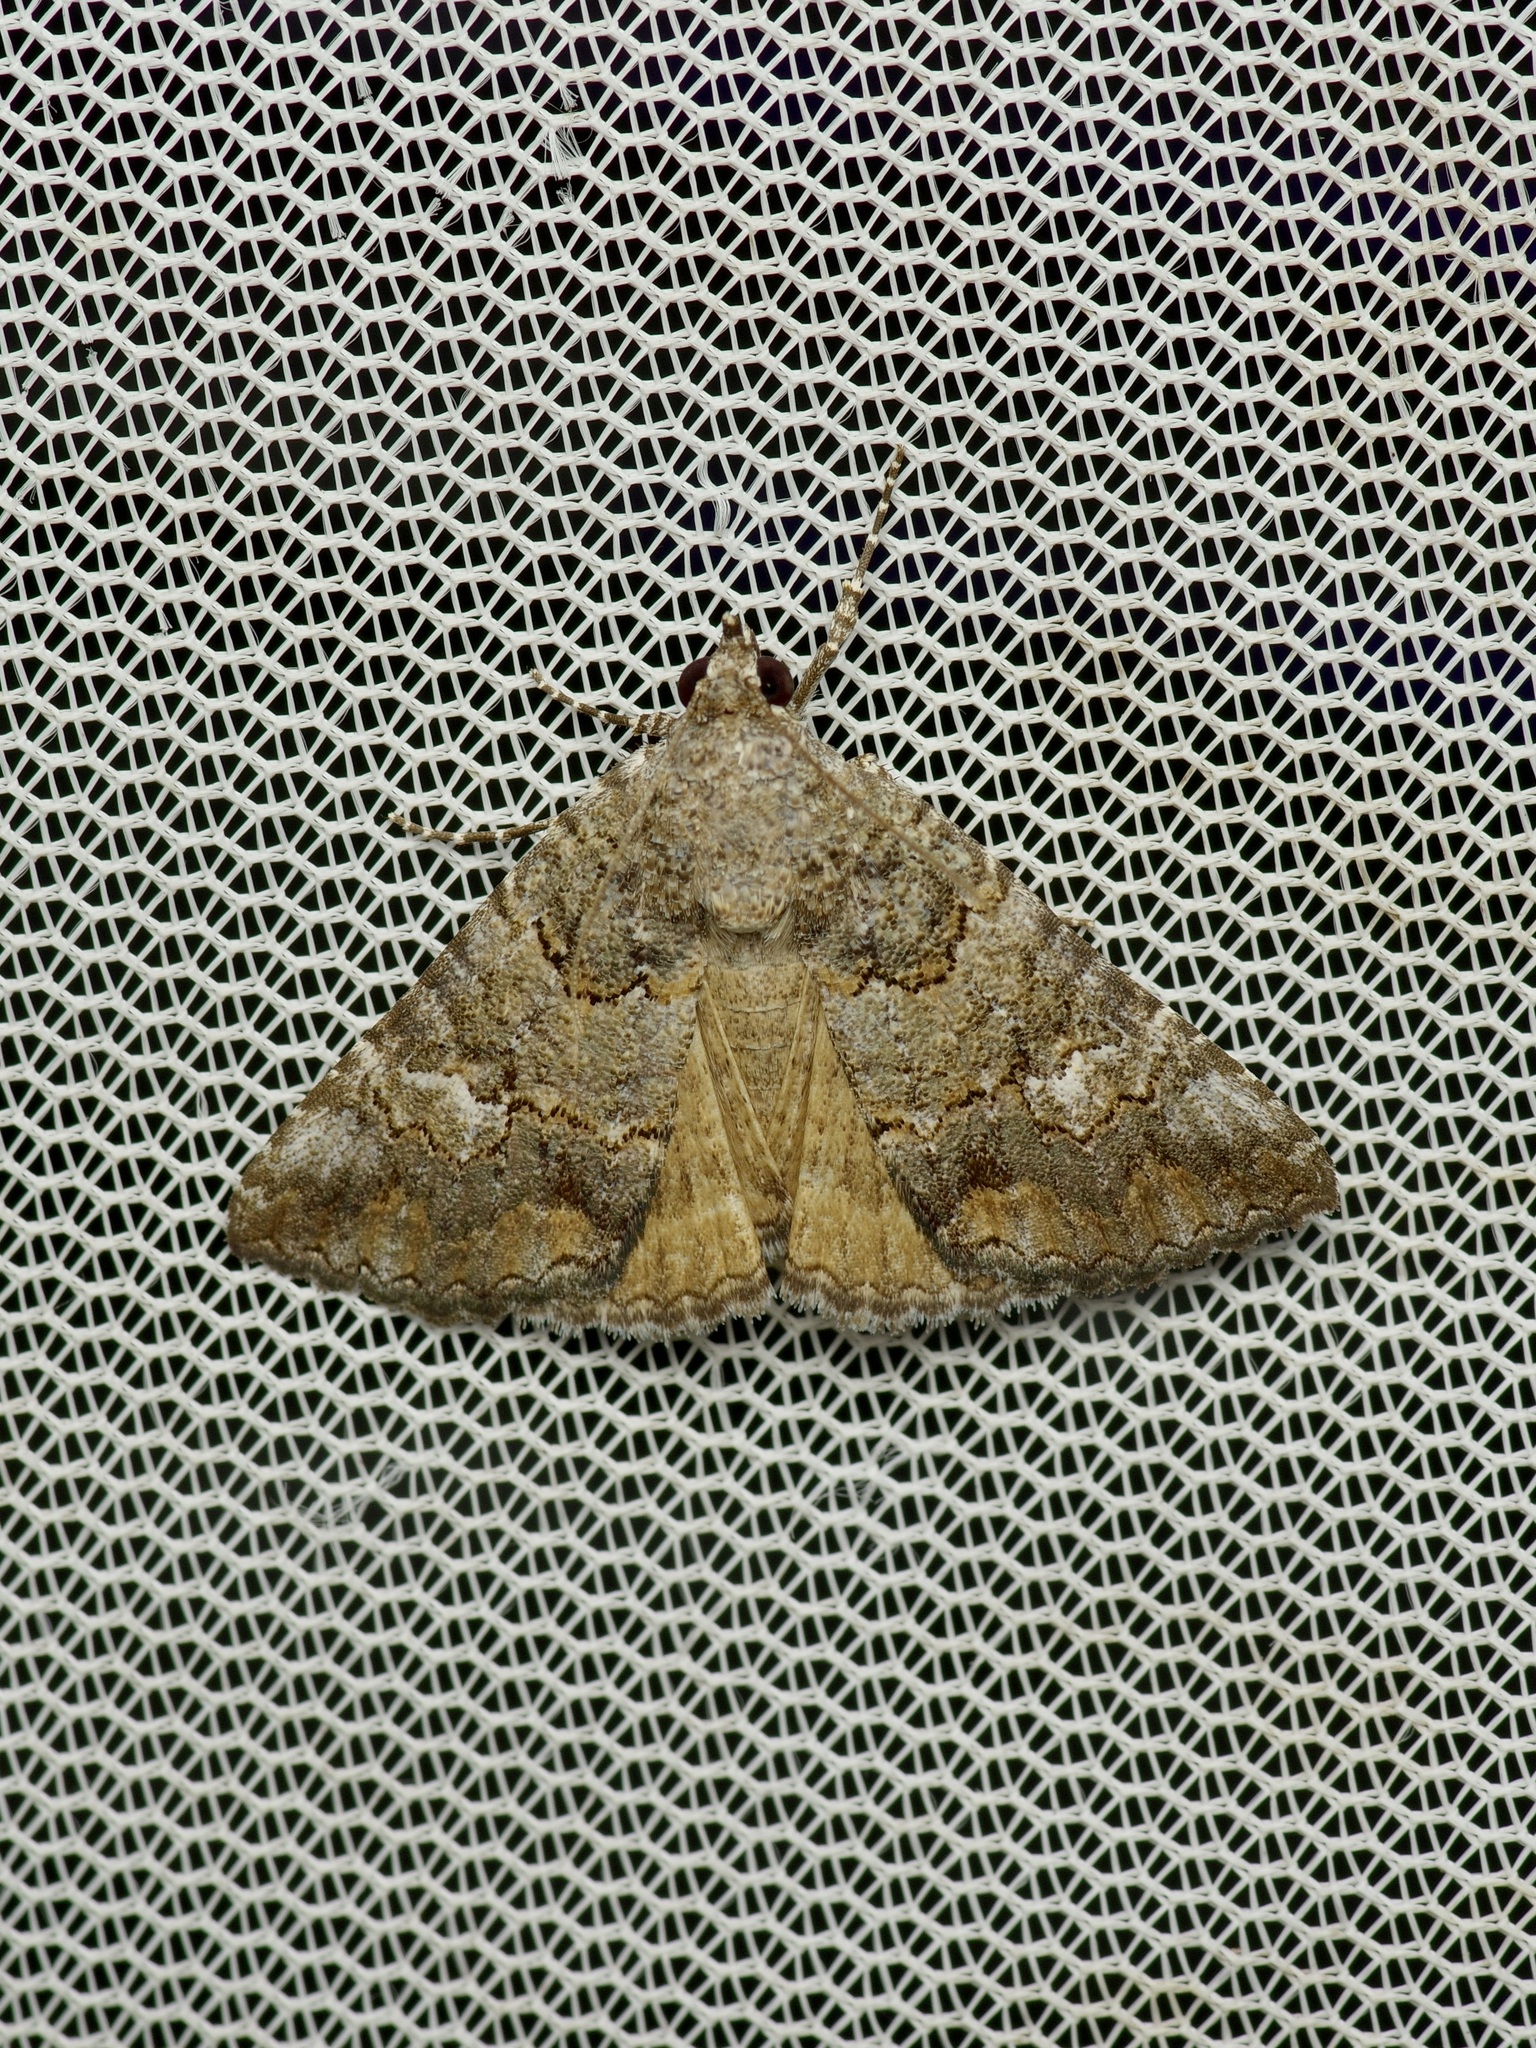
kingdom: Animalia
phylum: Arthropoda
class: Insecta
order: Lepidoptera
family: Erebidae
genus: Eubolina
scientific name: Eubolina impartialis
